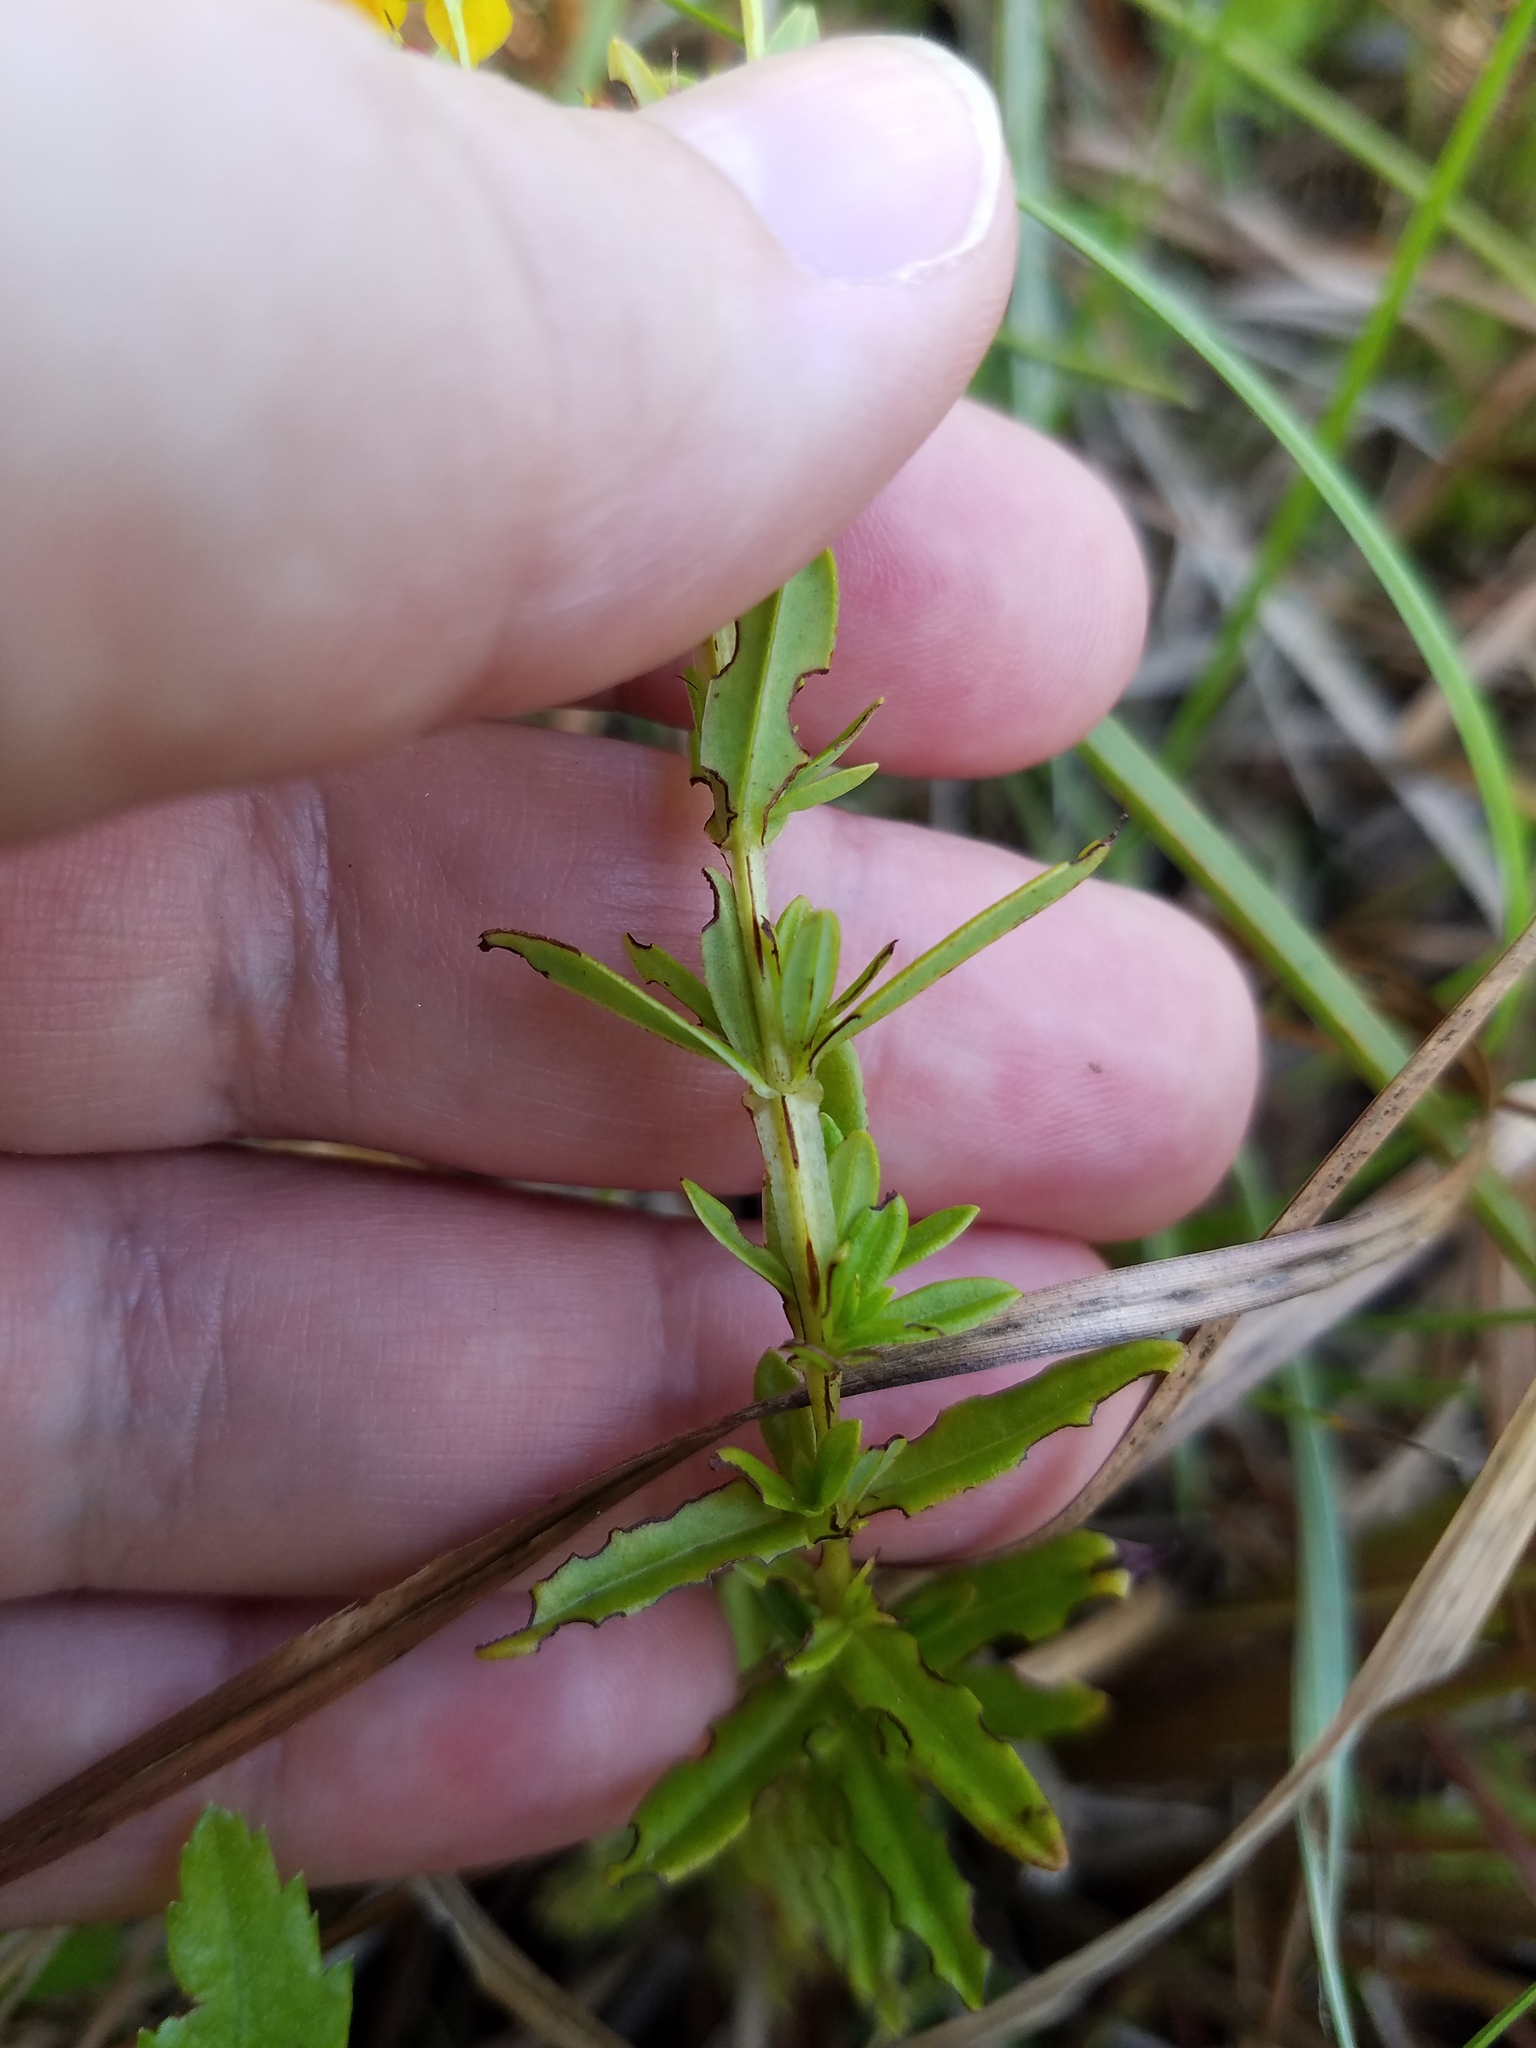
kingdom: Plantae
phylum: Tracheophyta
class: Magnoliopsida
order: Malpighiales
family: Hypericaceae
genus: Hypericum
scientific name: Hypericum cistifolium
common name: Round-pod st. john's-wort
